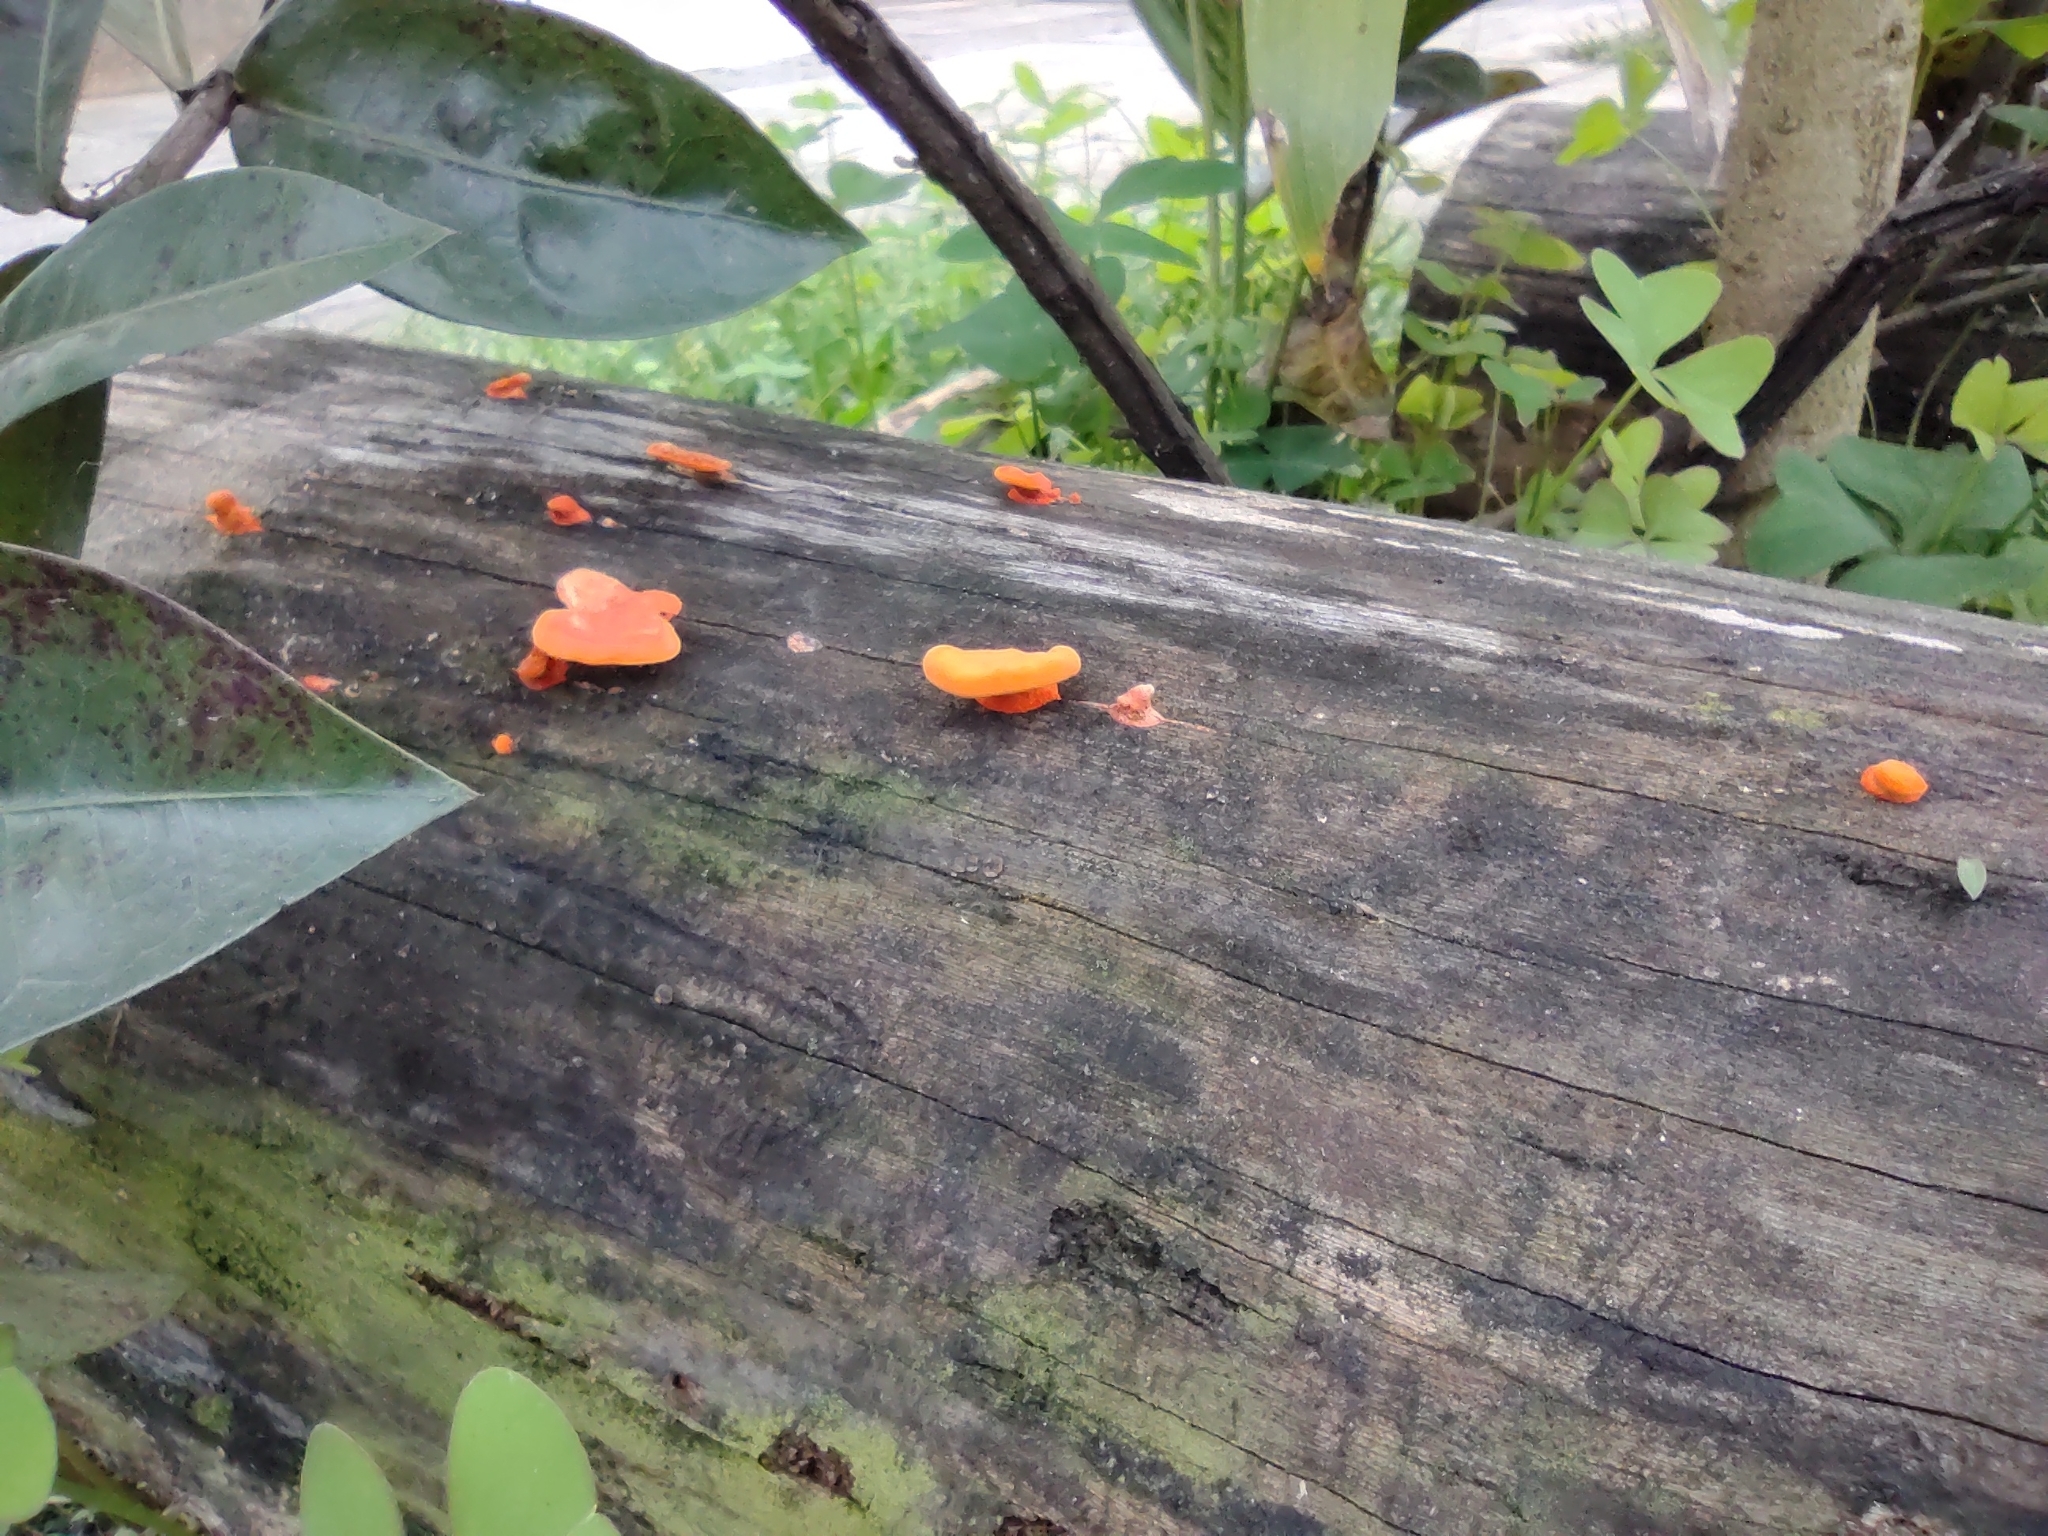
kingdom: Fungi
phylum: Basidiomycota
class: Agaricomycetes
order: Polyporales
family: Polyporaceae
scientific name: Polyporaceae
